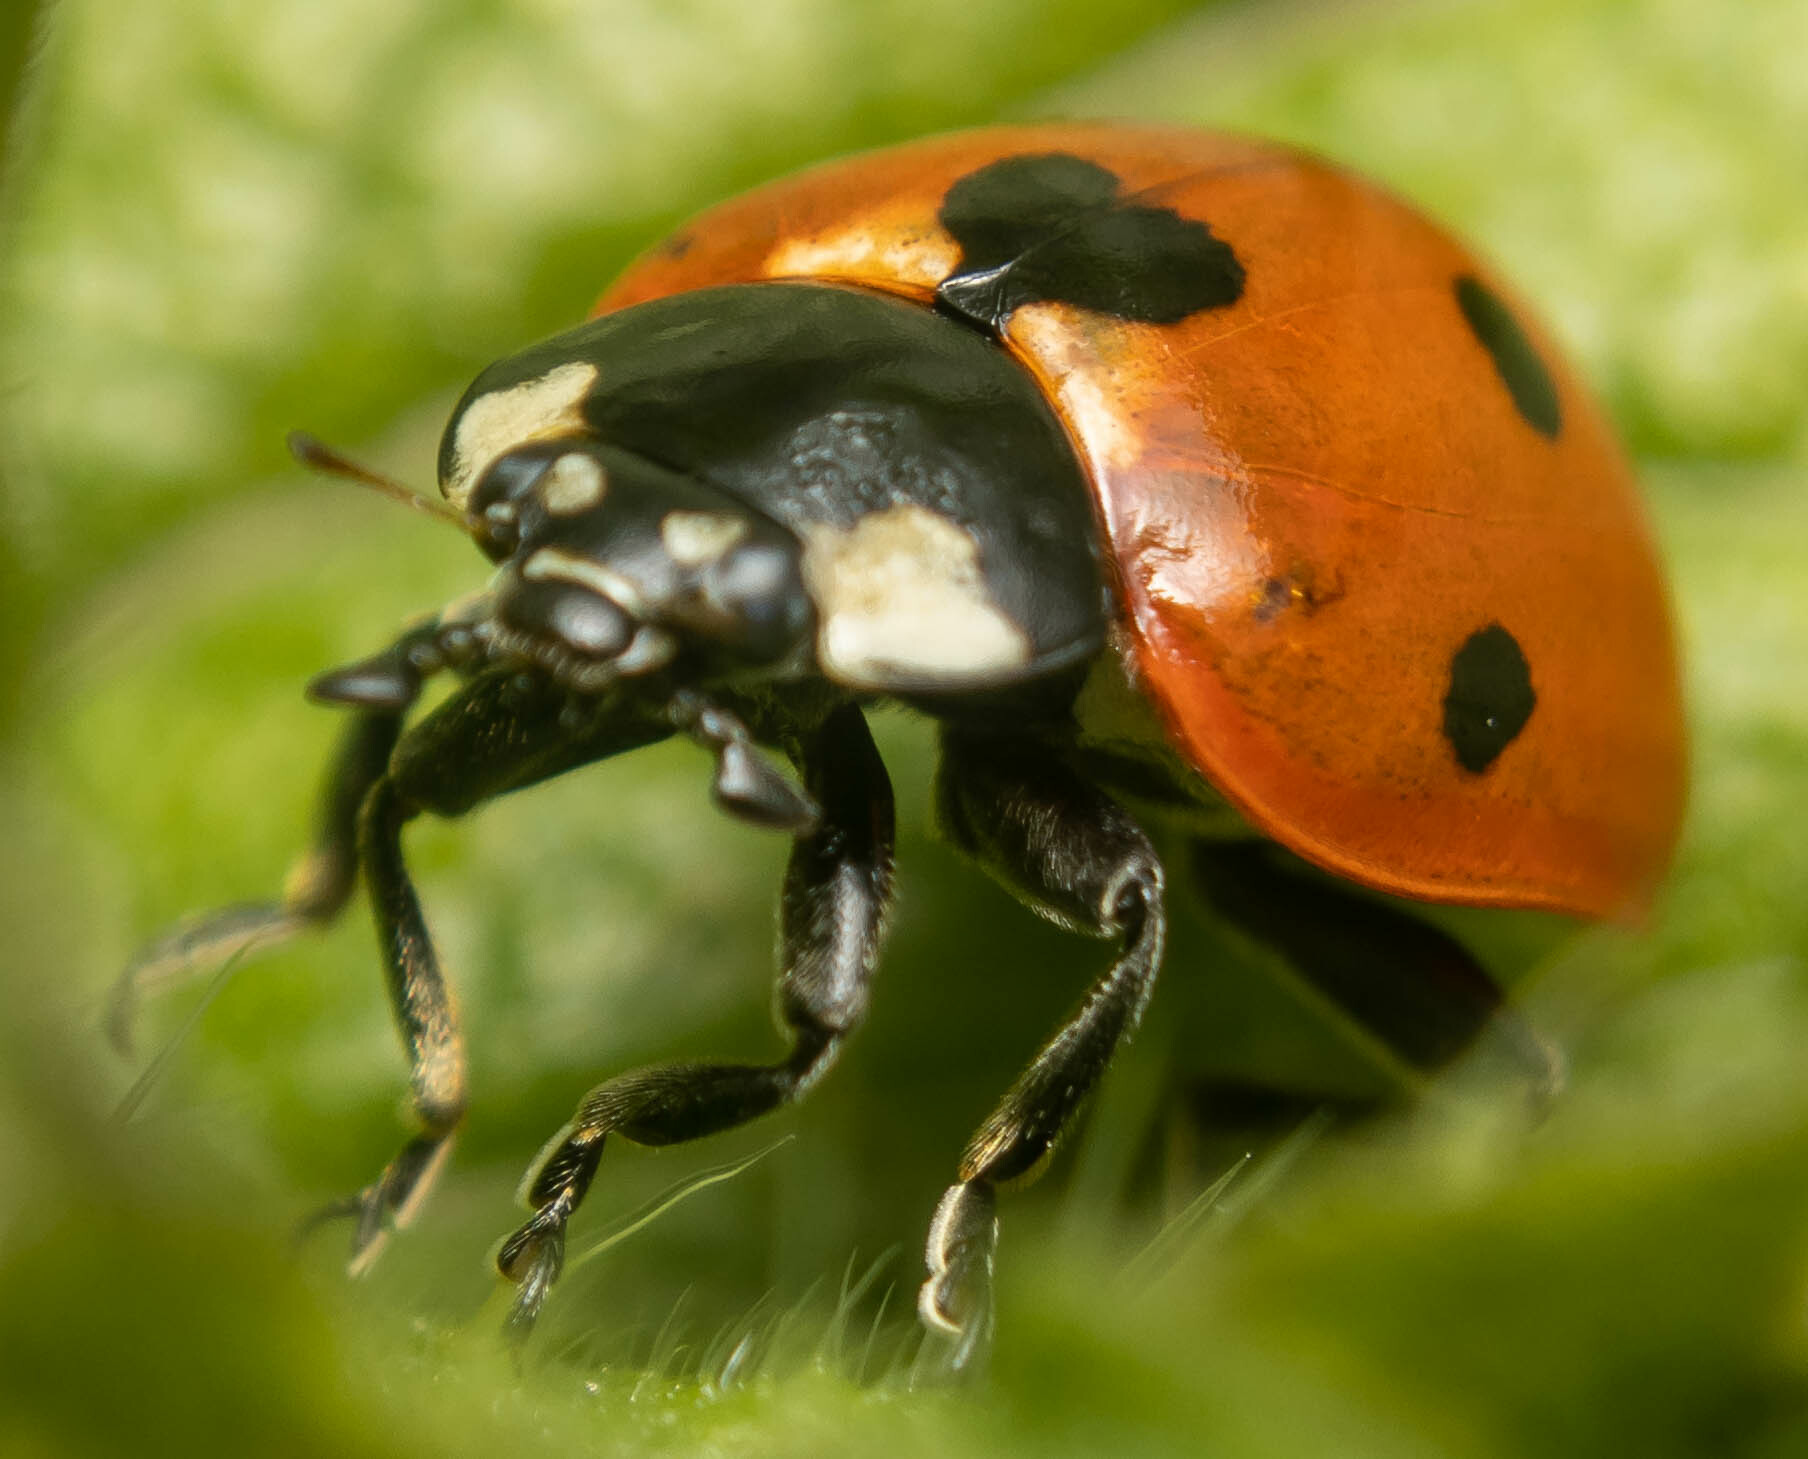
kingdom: Animalia
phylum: Arthropoda
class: Insecta
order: Coleoptera
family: Coccinellidae
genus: Coccinella
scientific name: Coccinella septempunctata
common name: Sevenspotted lady beetle
